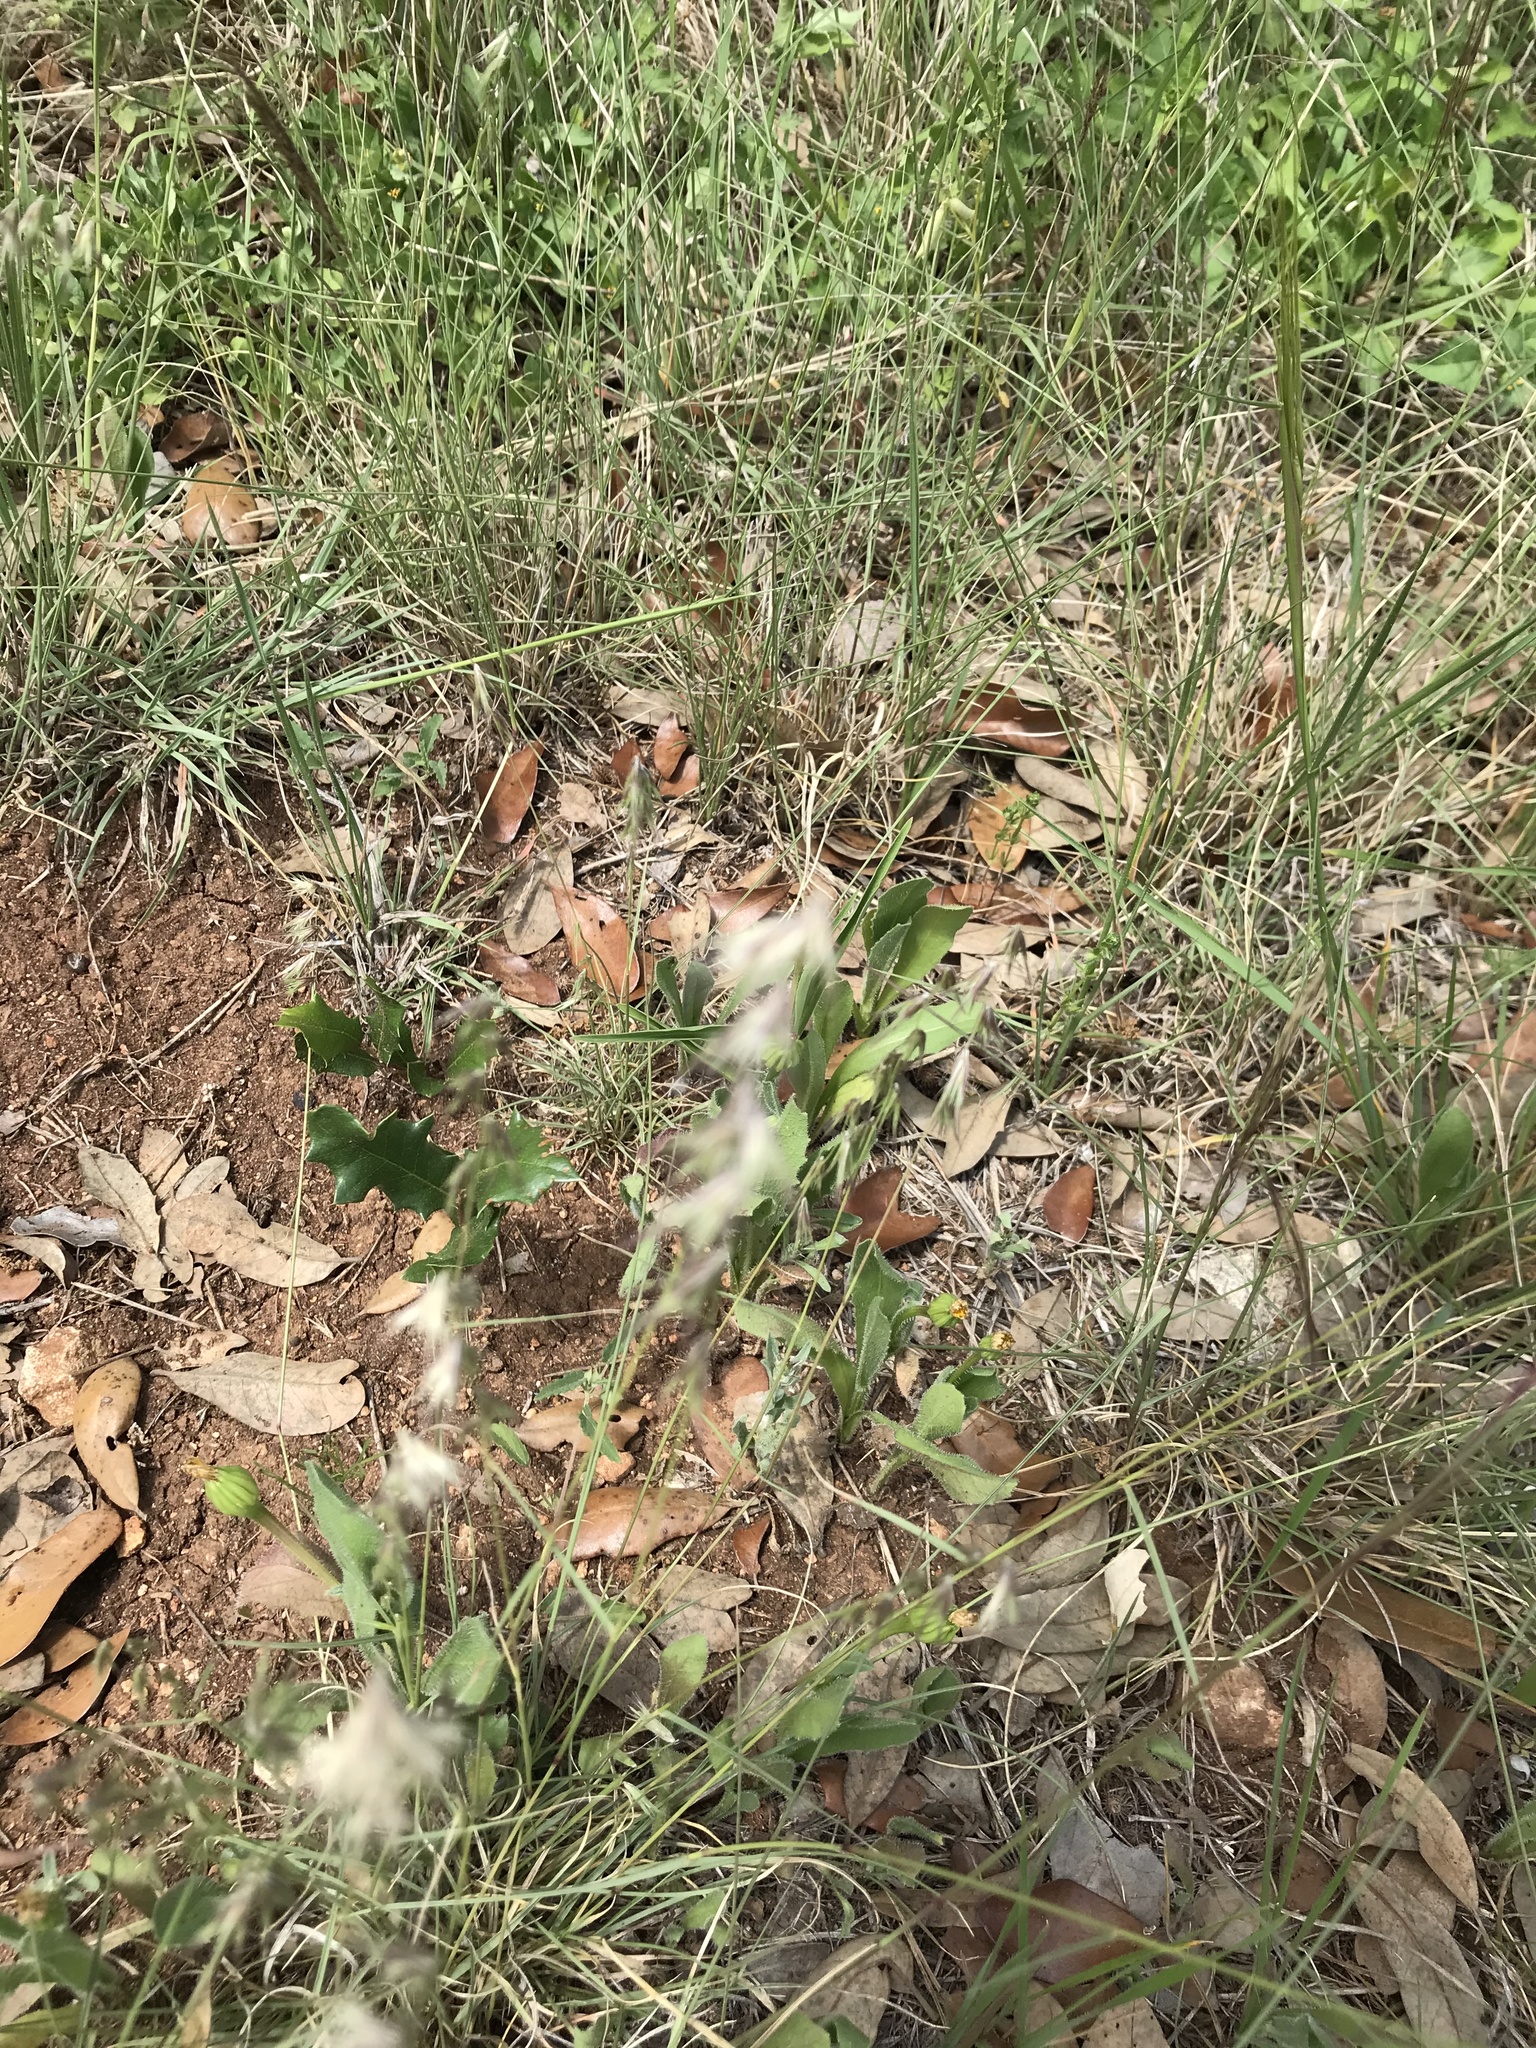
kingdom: Plantae
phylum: Tracheophyta
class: Liliopsida
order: Poales
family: Poaceae
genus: Bouteloua
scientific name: Bouteloua rigidiseta
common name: Texas grama
